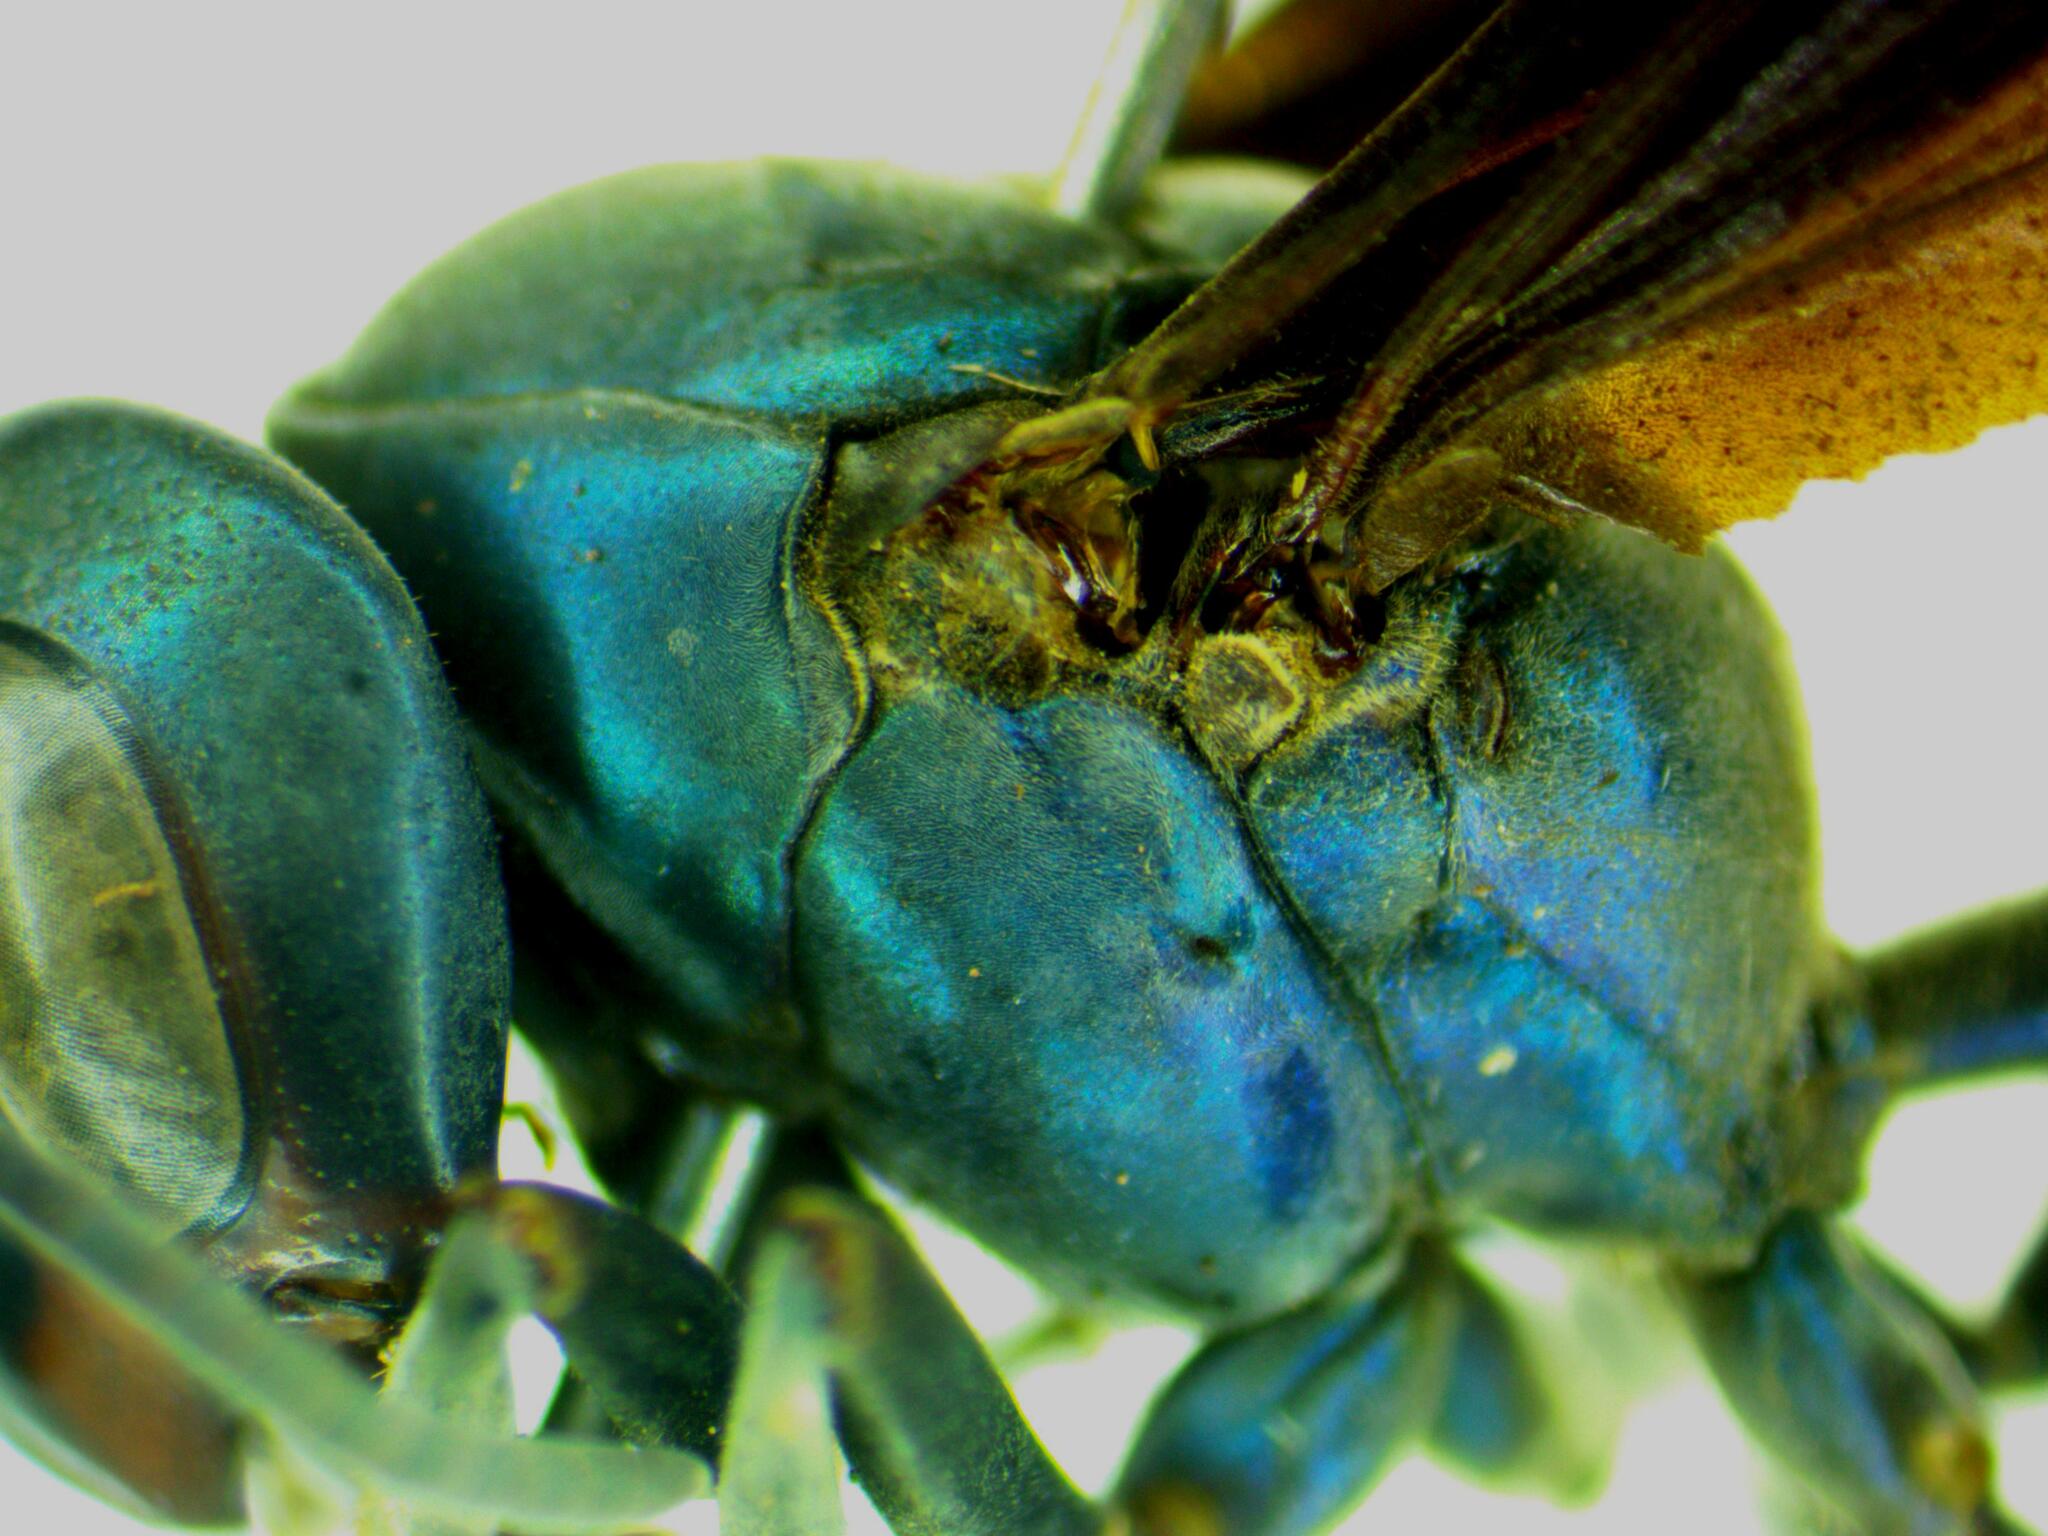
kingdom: Animalia
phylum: Arthropoda
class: Insecta
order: Hymenoptera
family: Vespidae
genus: Synoeca
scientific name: Synoeca septentrionalis
